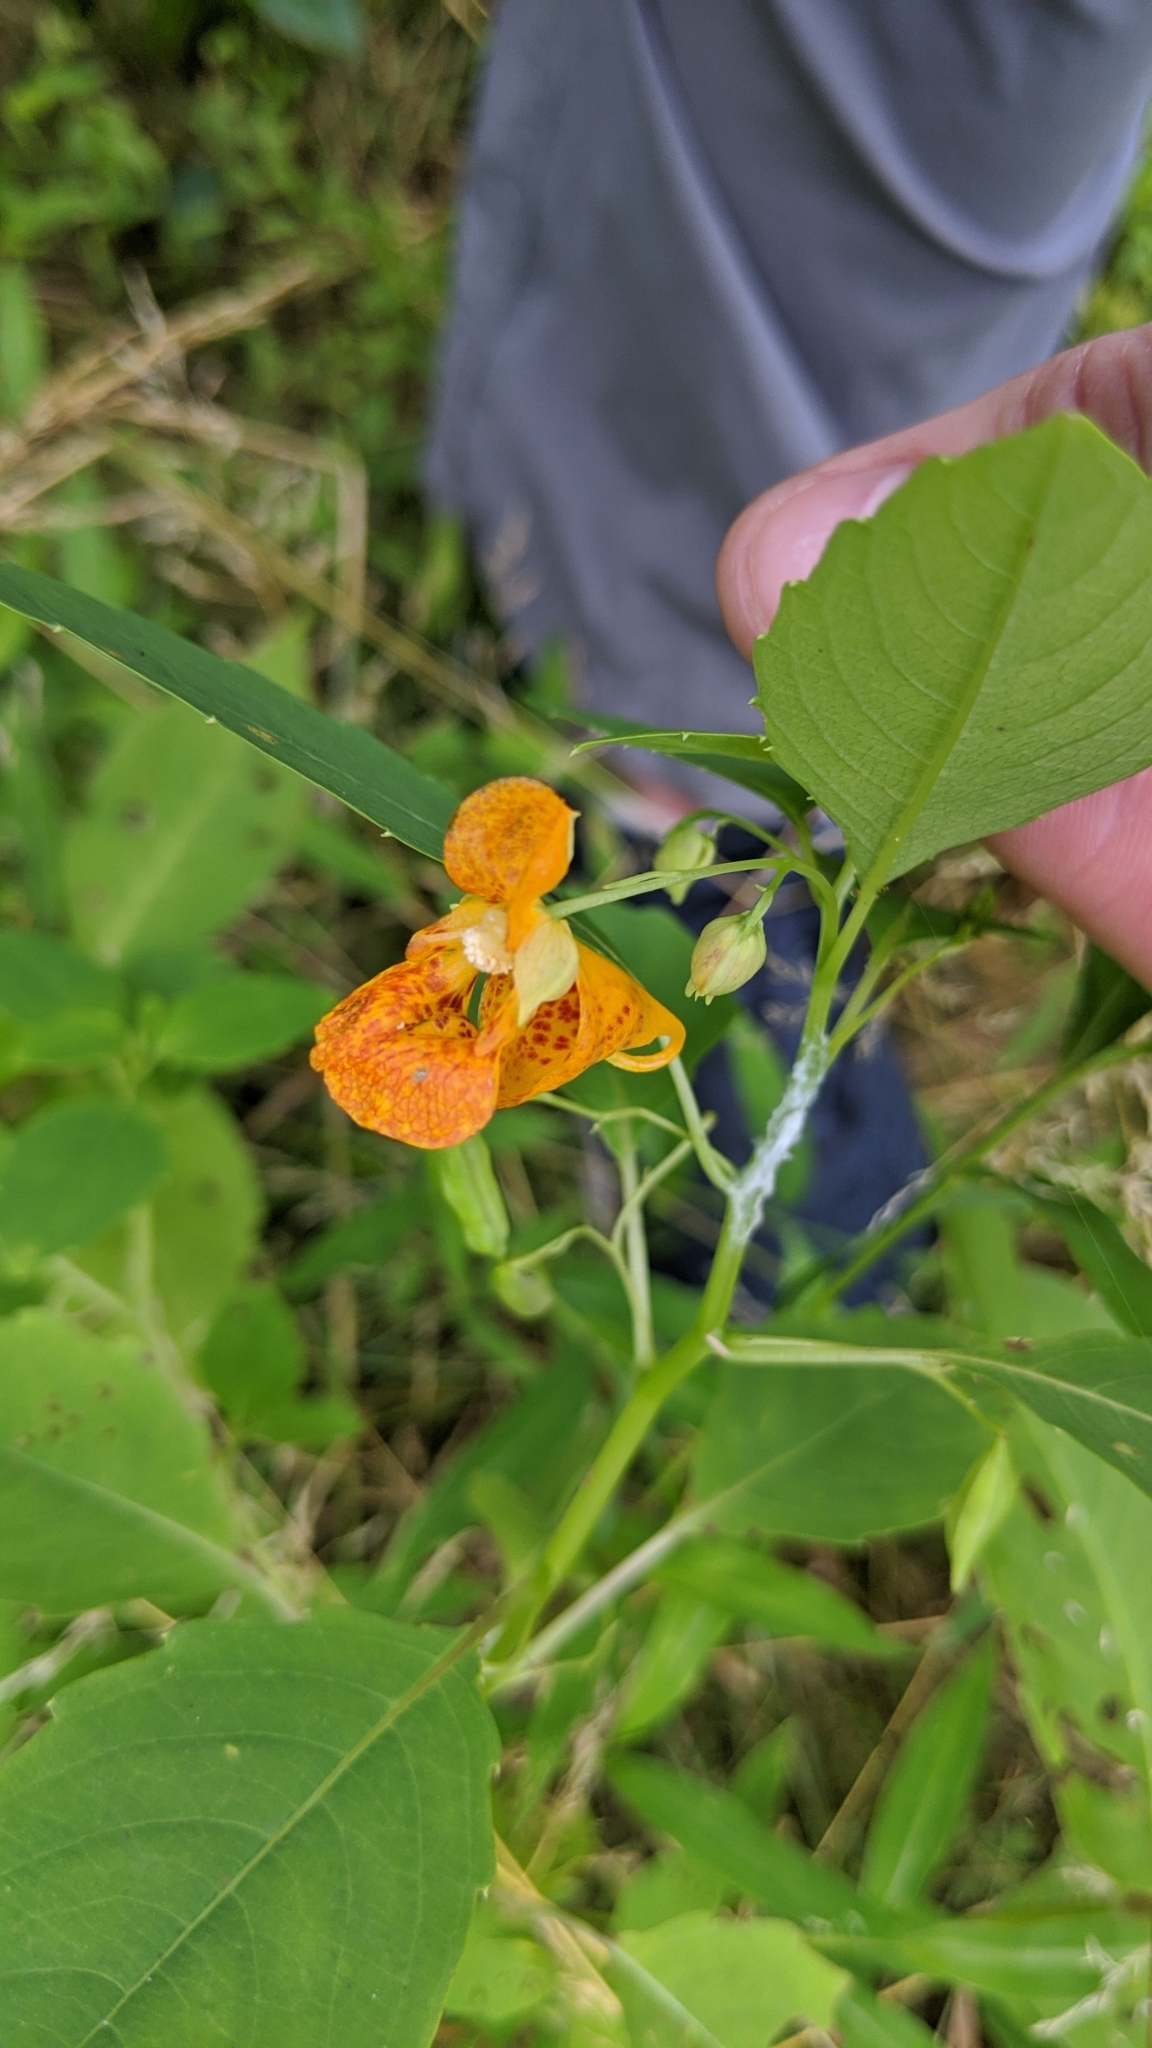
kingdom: Plantae
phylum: Tracheophyta
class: Magnoliopsida
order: Ericales
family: Balsaminaceae
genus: Impatiens
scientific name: Impatiens capensis
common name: Orange balsam
